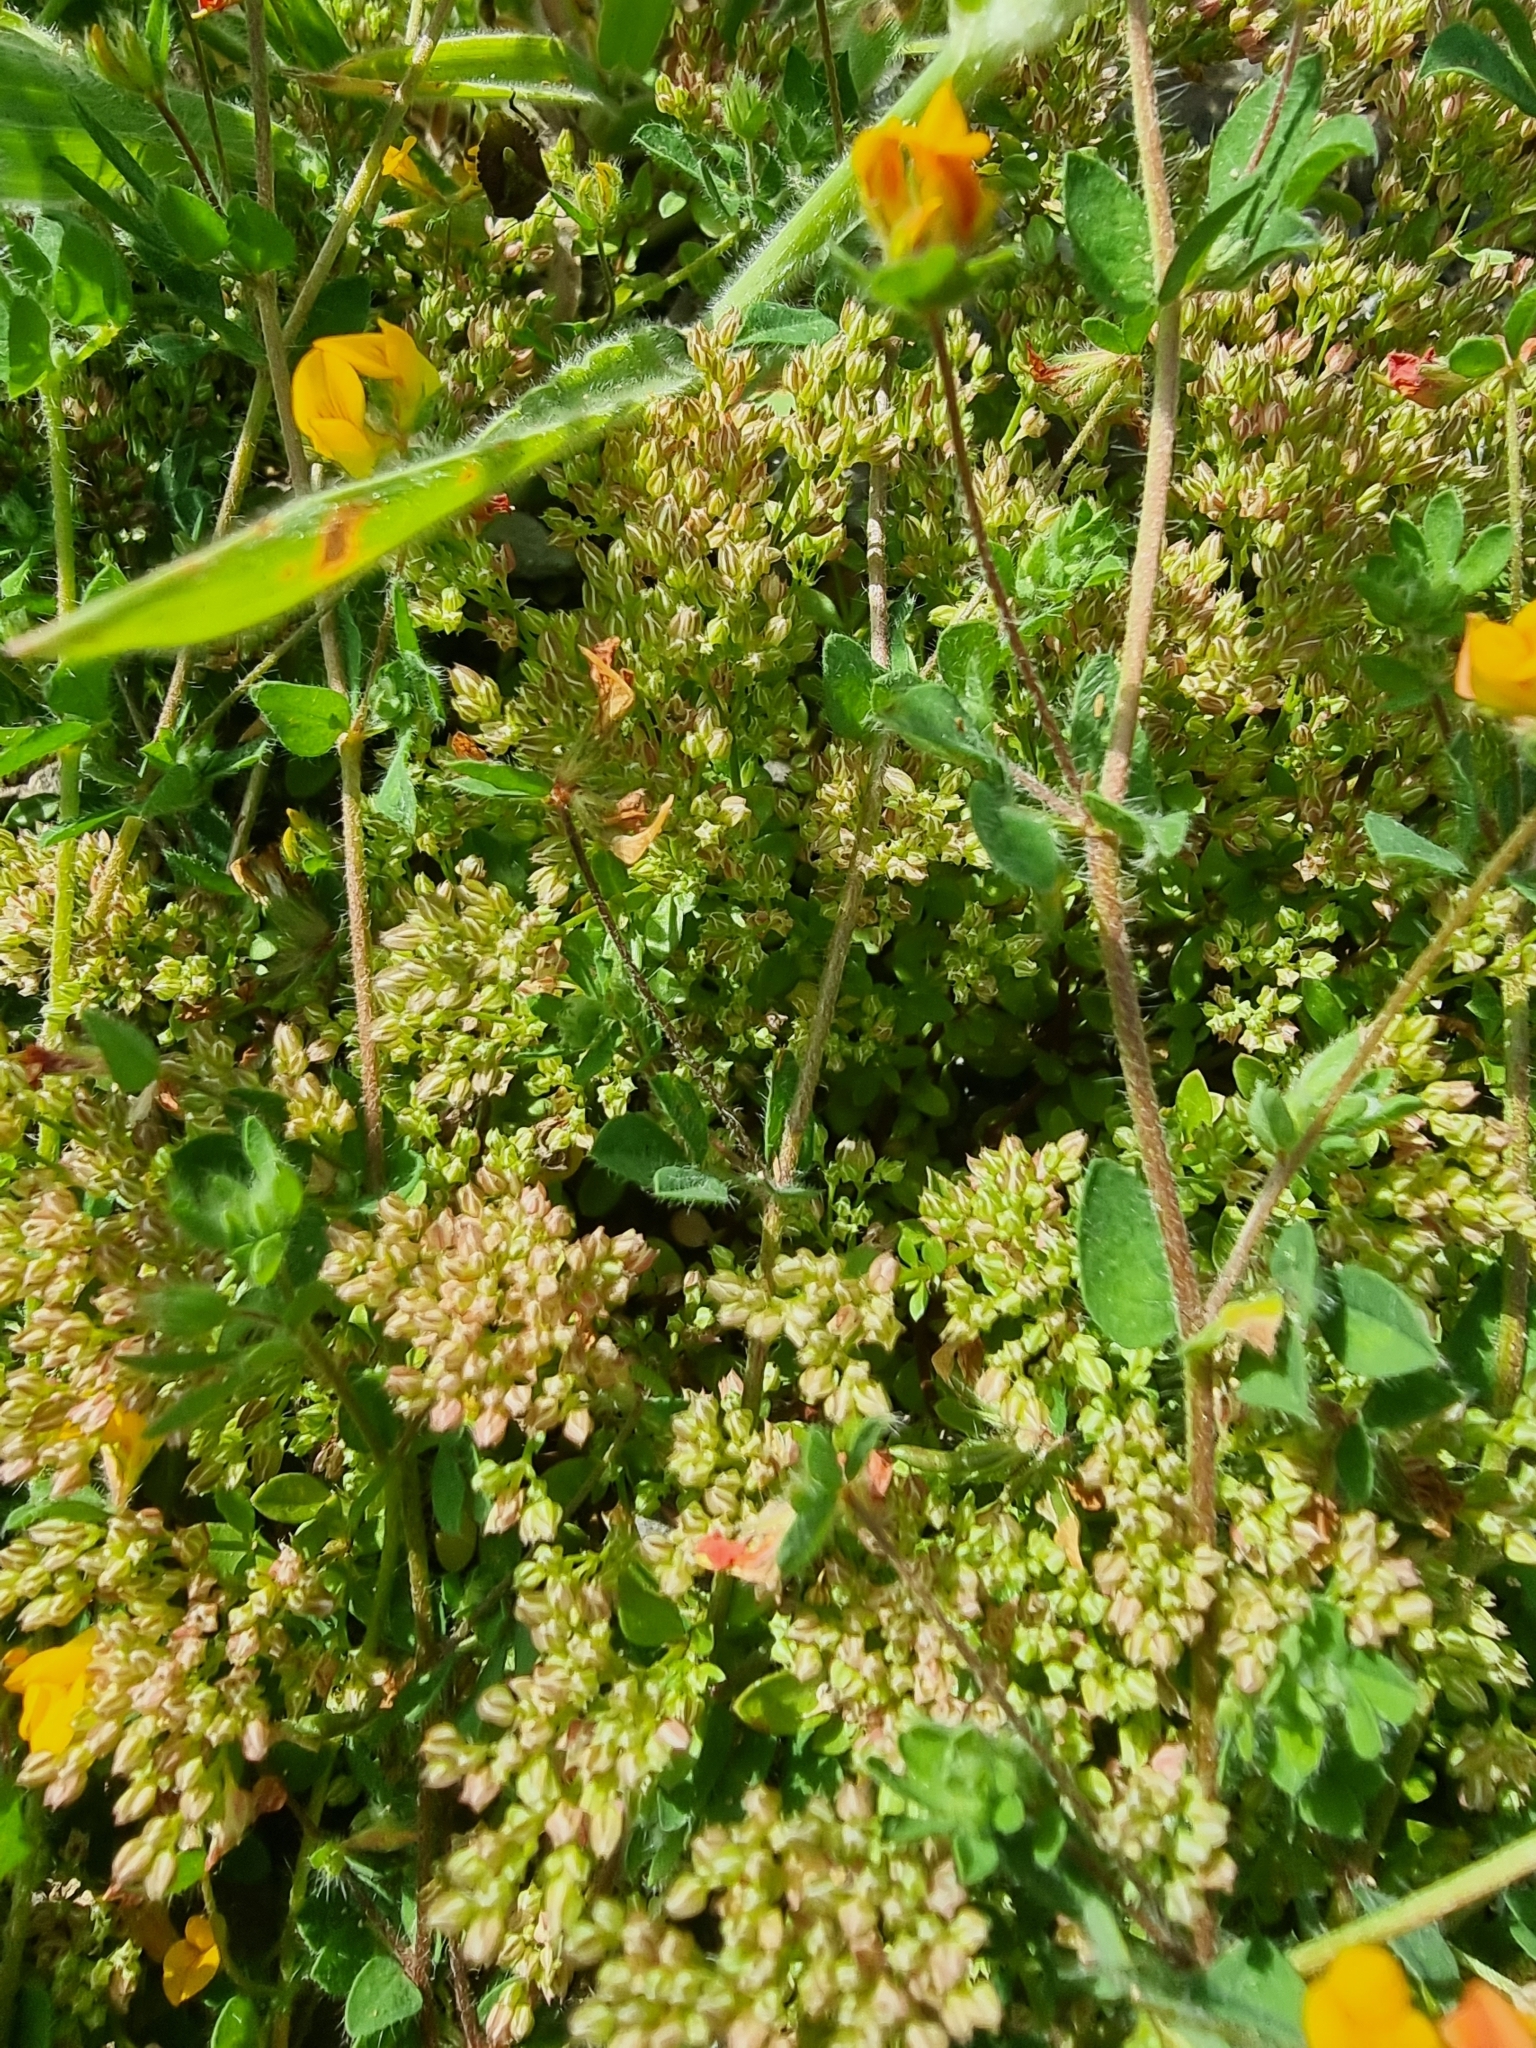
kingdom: Plantae
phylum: Tracheophyta
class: Magnoliopsida
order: Caryophyllales
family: Caryophyllaceae
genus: Polycarpon
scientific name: Polycarpon tetraphyllum
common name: Four-leaved all-seed
